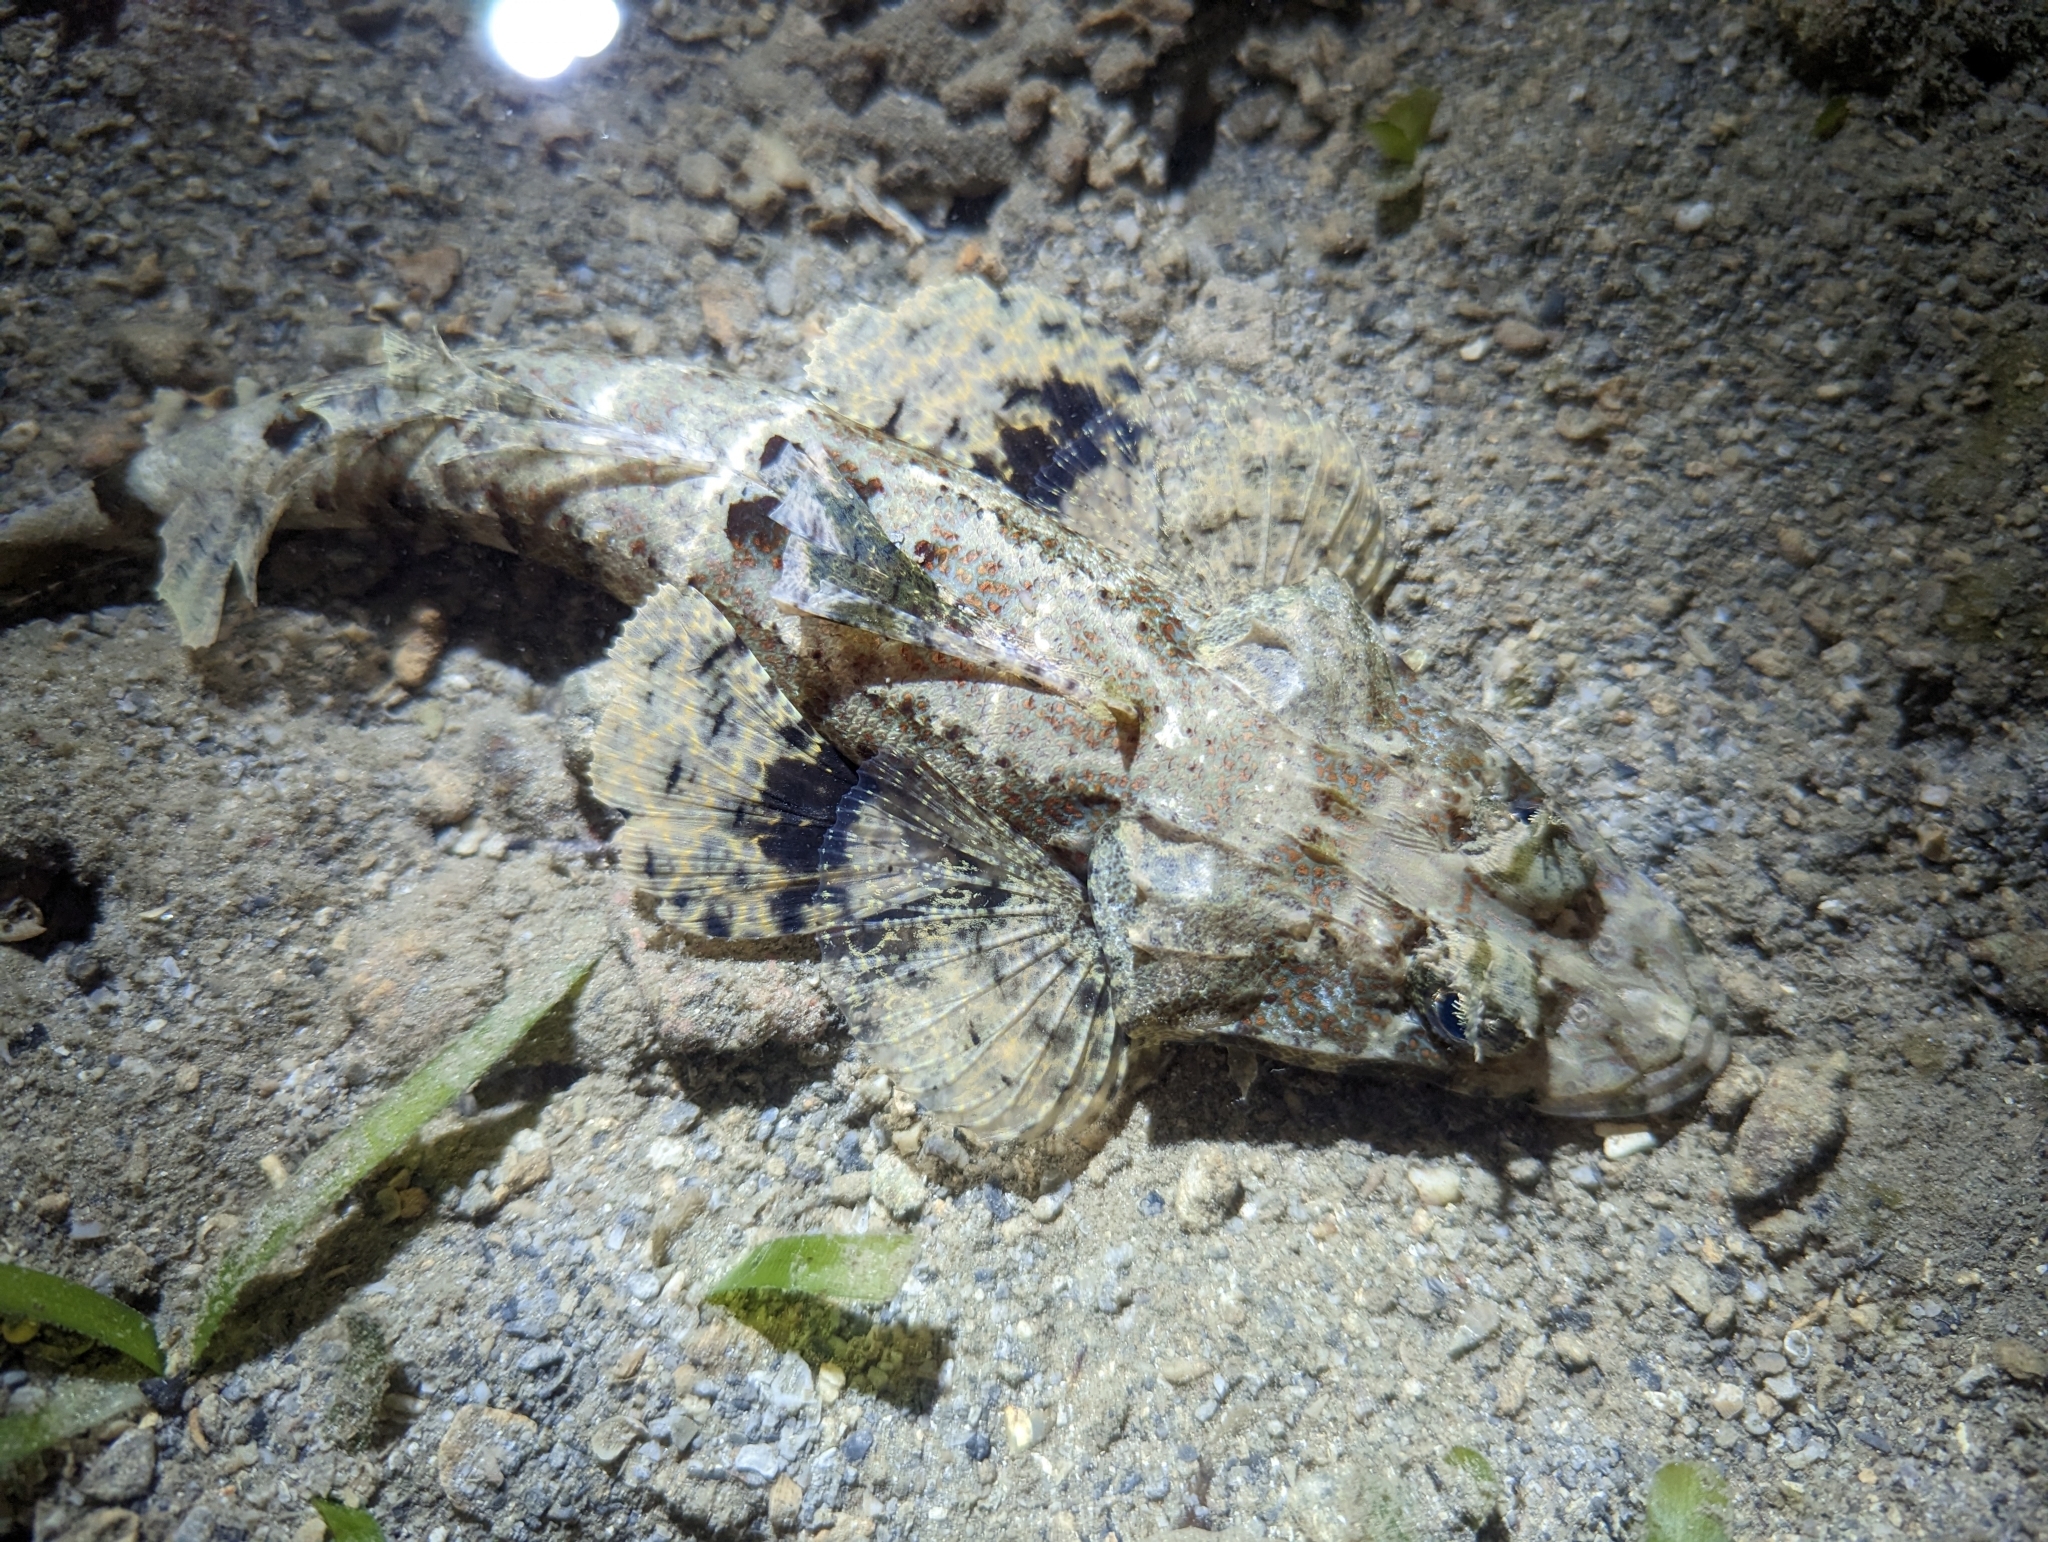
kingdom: Animalia
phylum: Chordata
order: Scorpaeniformes
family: Platycephalidae
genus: Cymbacephalus
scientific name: Cymbacephalus nematophthalmus
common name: Fringe-eyed flathead
